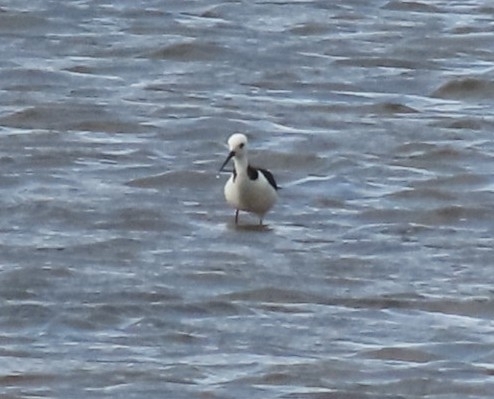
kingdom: Animalia
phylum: Chordata
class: Aves
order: Charadriiformes
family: Recurvirostridae
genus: Himantopus
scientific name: Himantopus leucocephalus
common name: White-headed stilt
